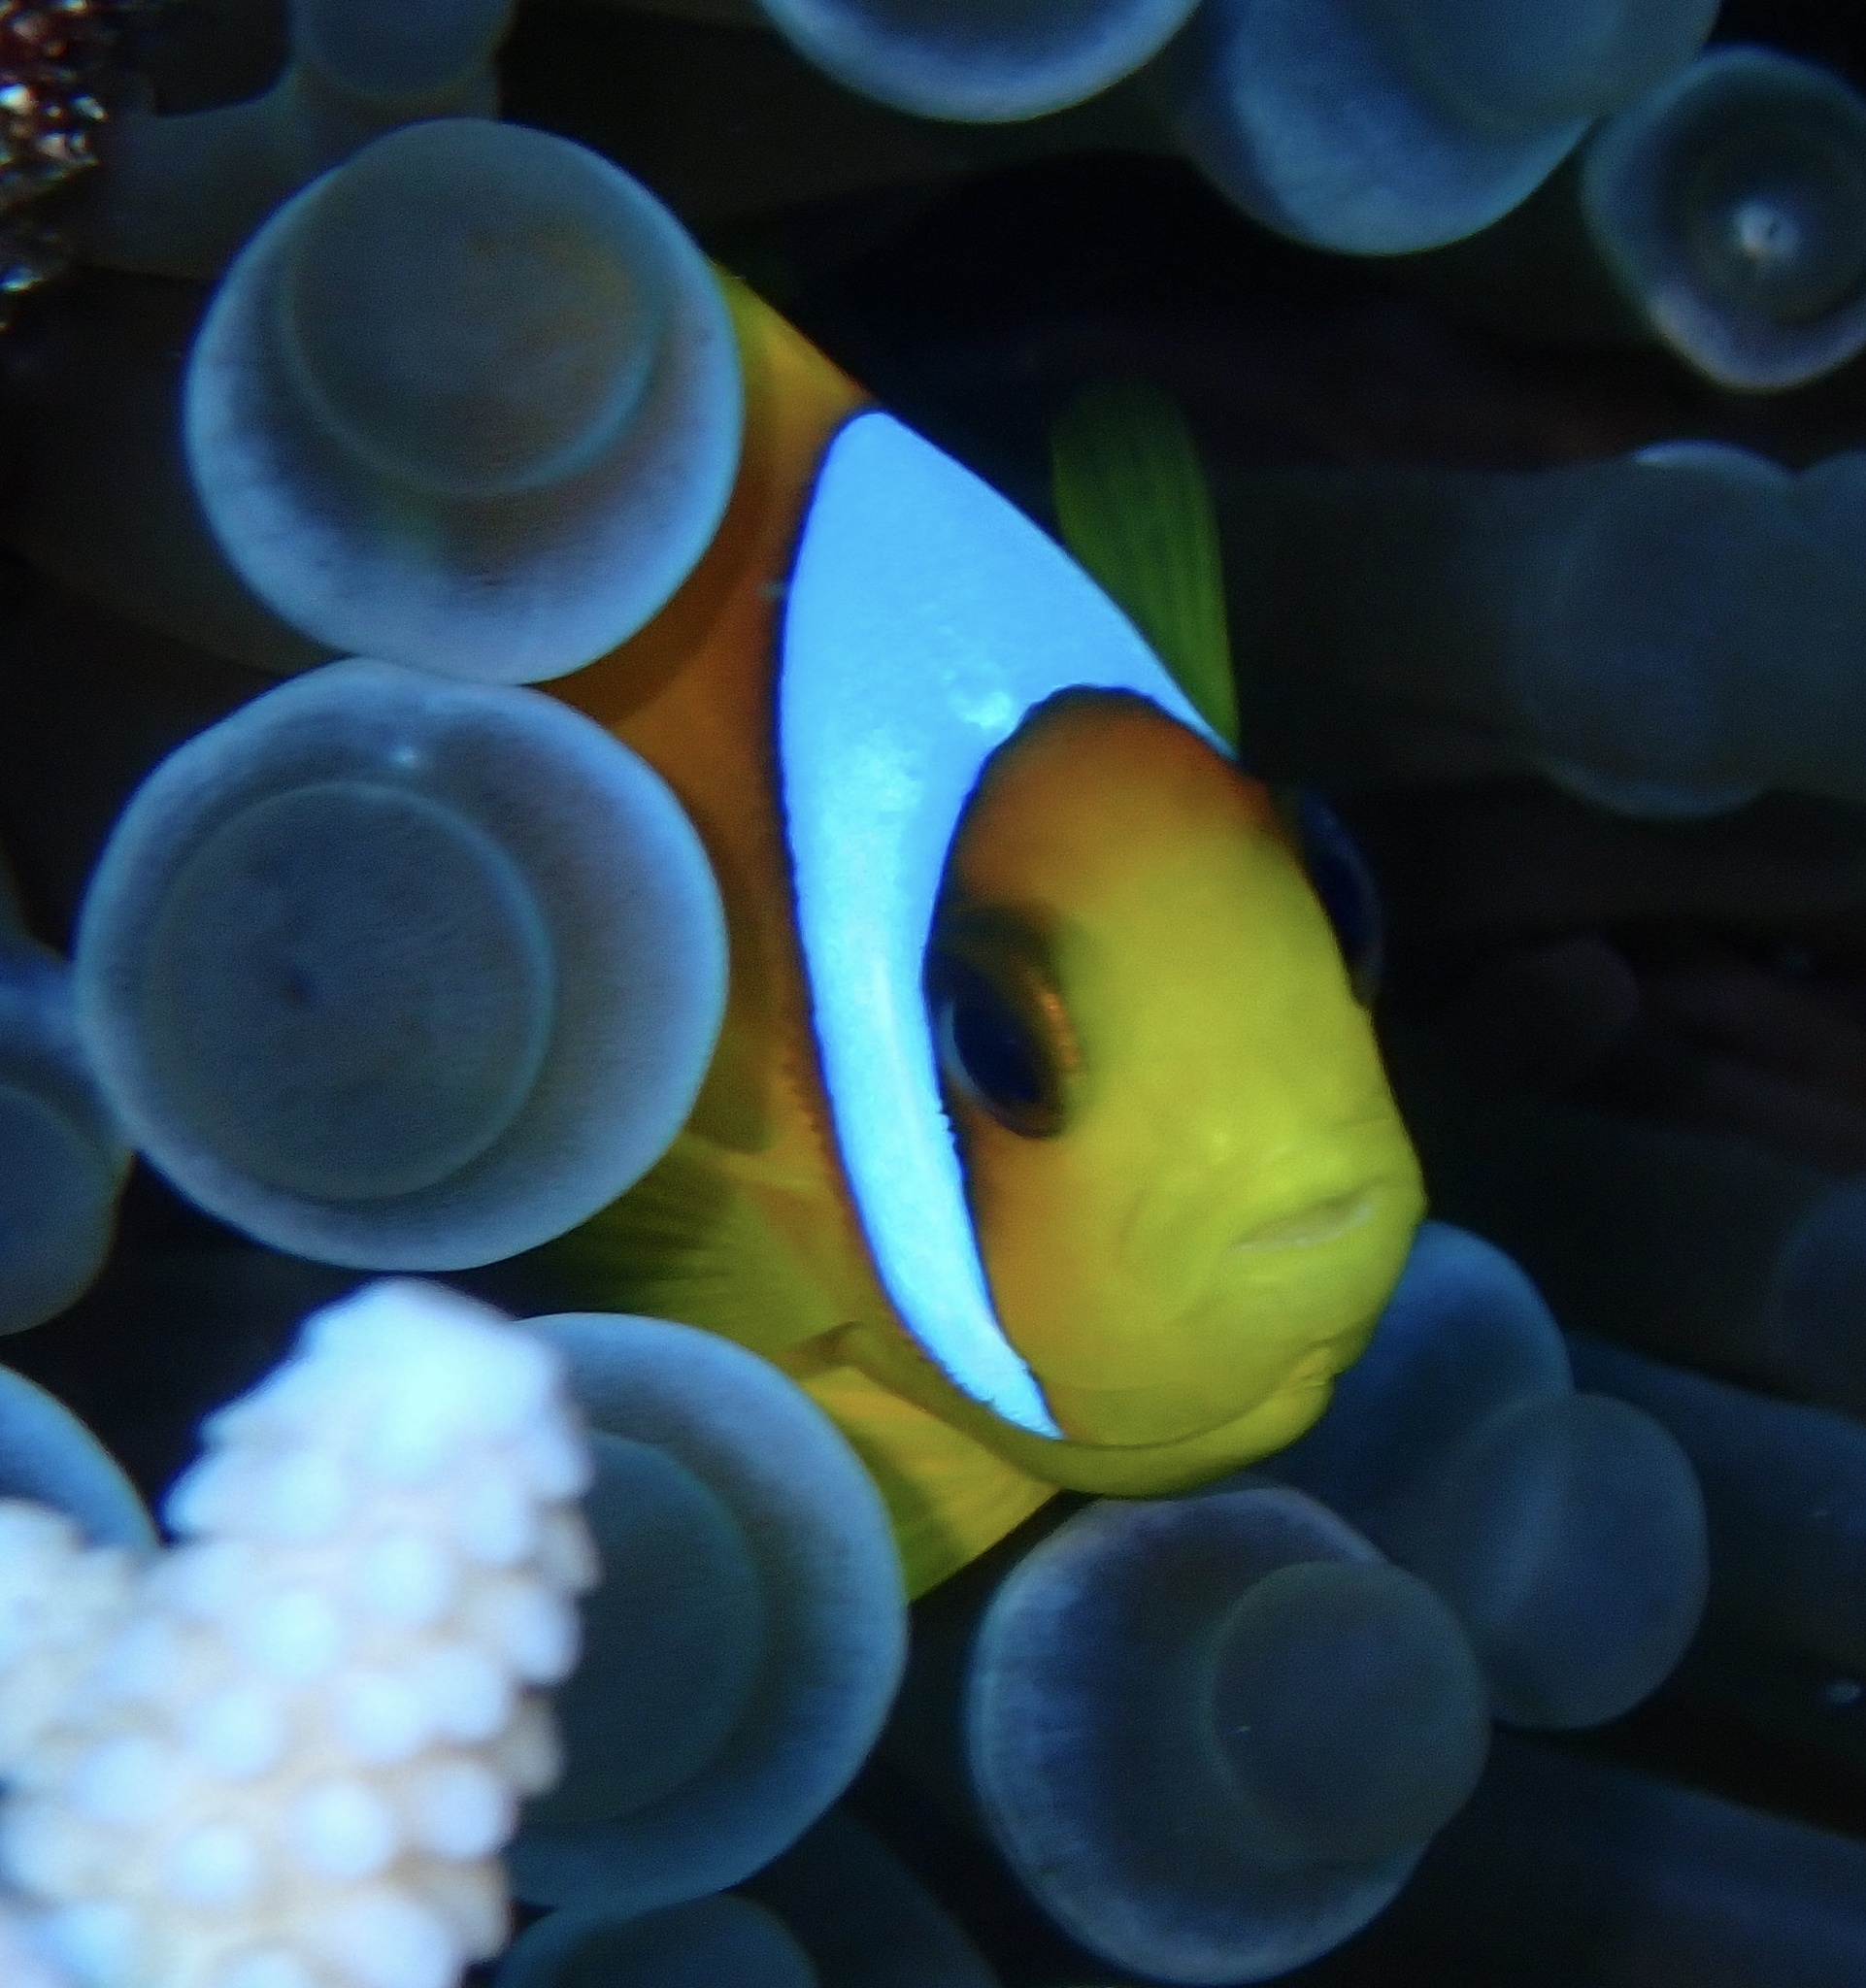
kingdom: Animalia
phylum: Chordata
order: Perciformes
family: Pomacentridae
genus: Amphiprion
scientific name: Amphiprion bicinctus
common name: Two-banded anemonefish
